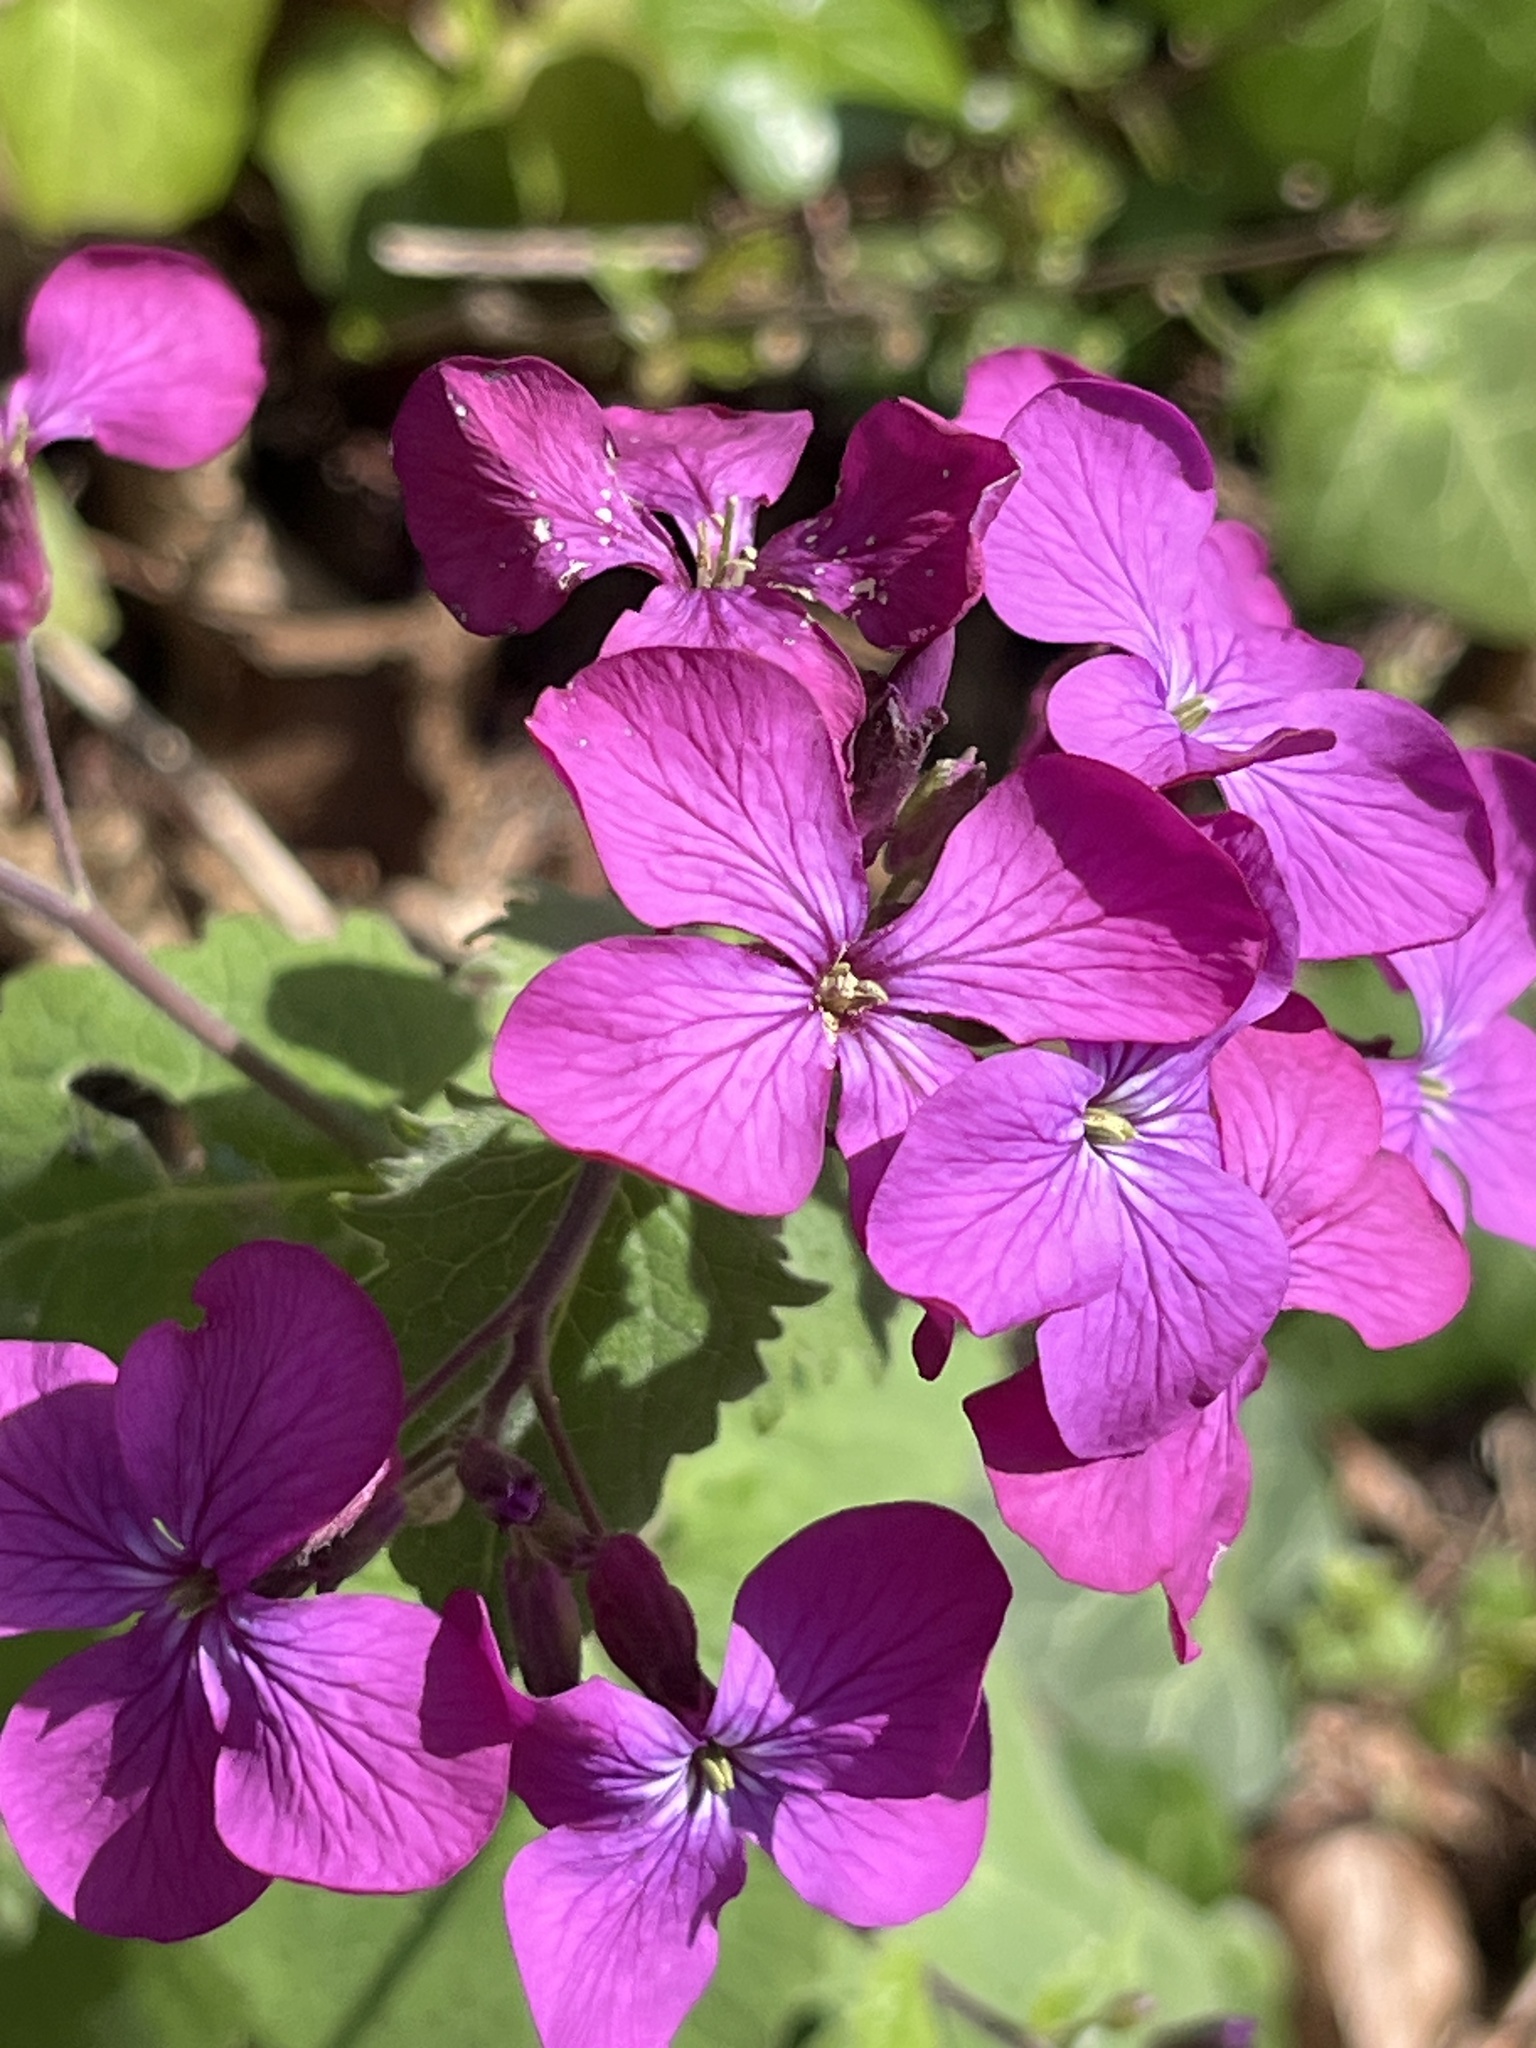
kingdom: Plantae
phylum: Tracheophyta
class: Magnoliopsida
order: Brassicales
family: Brassicaceae
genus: Lunaria
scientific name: Lunaria annua
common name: Honesty
